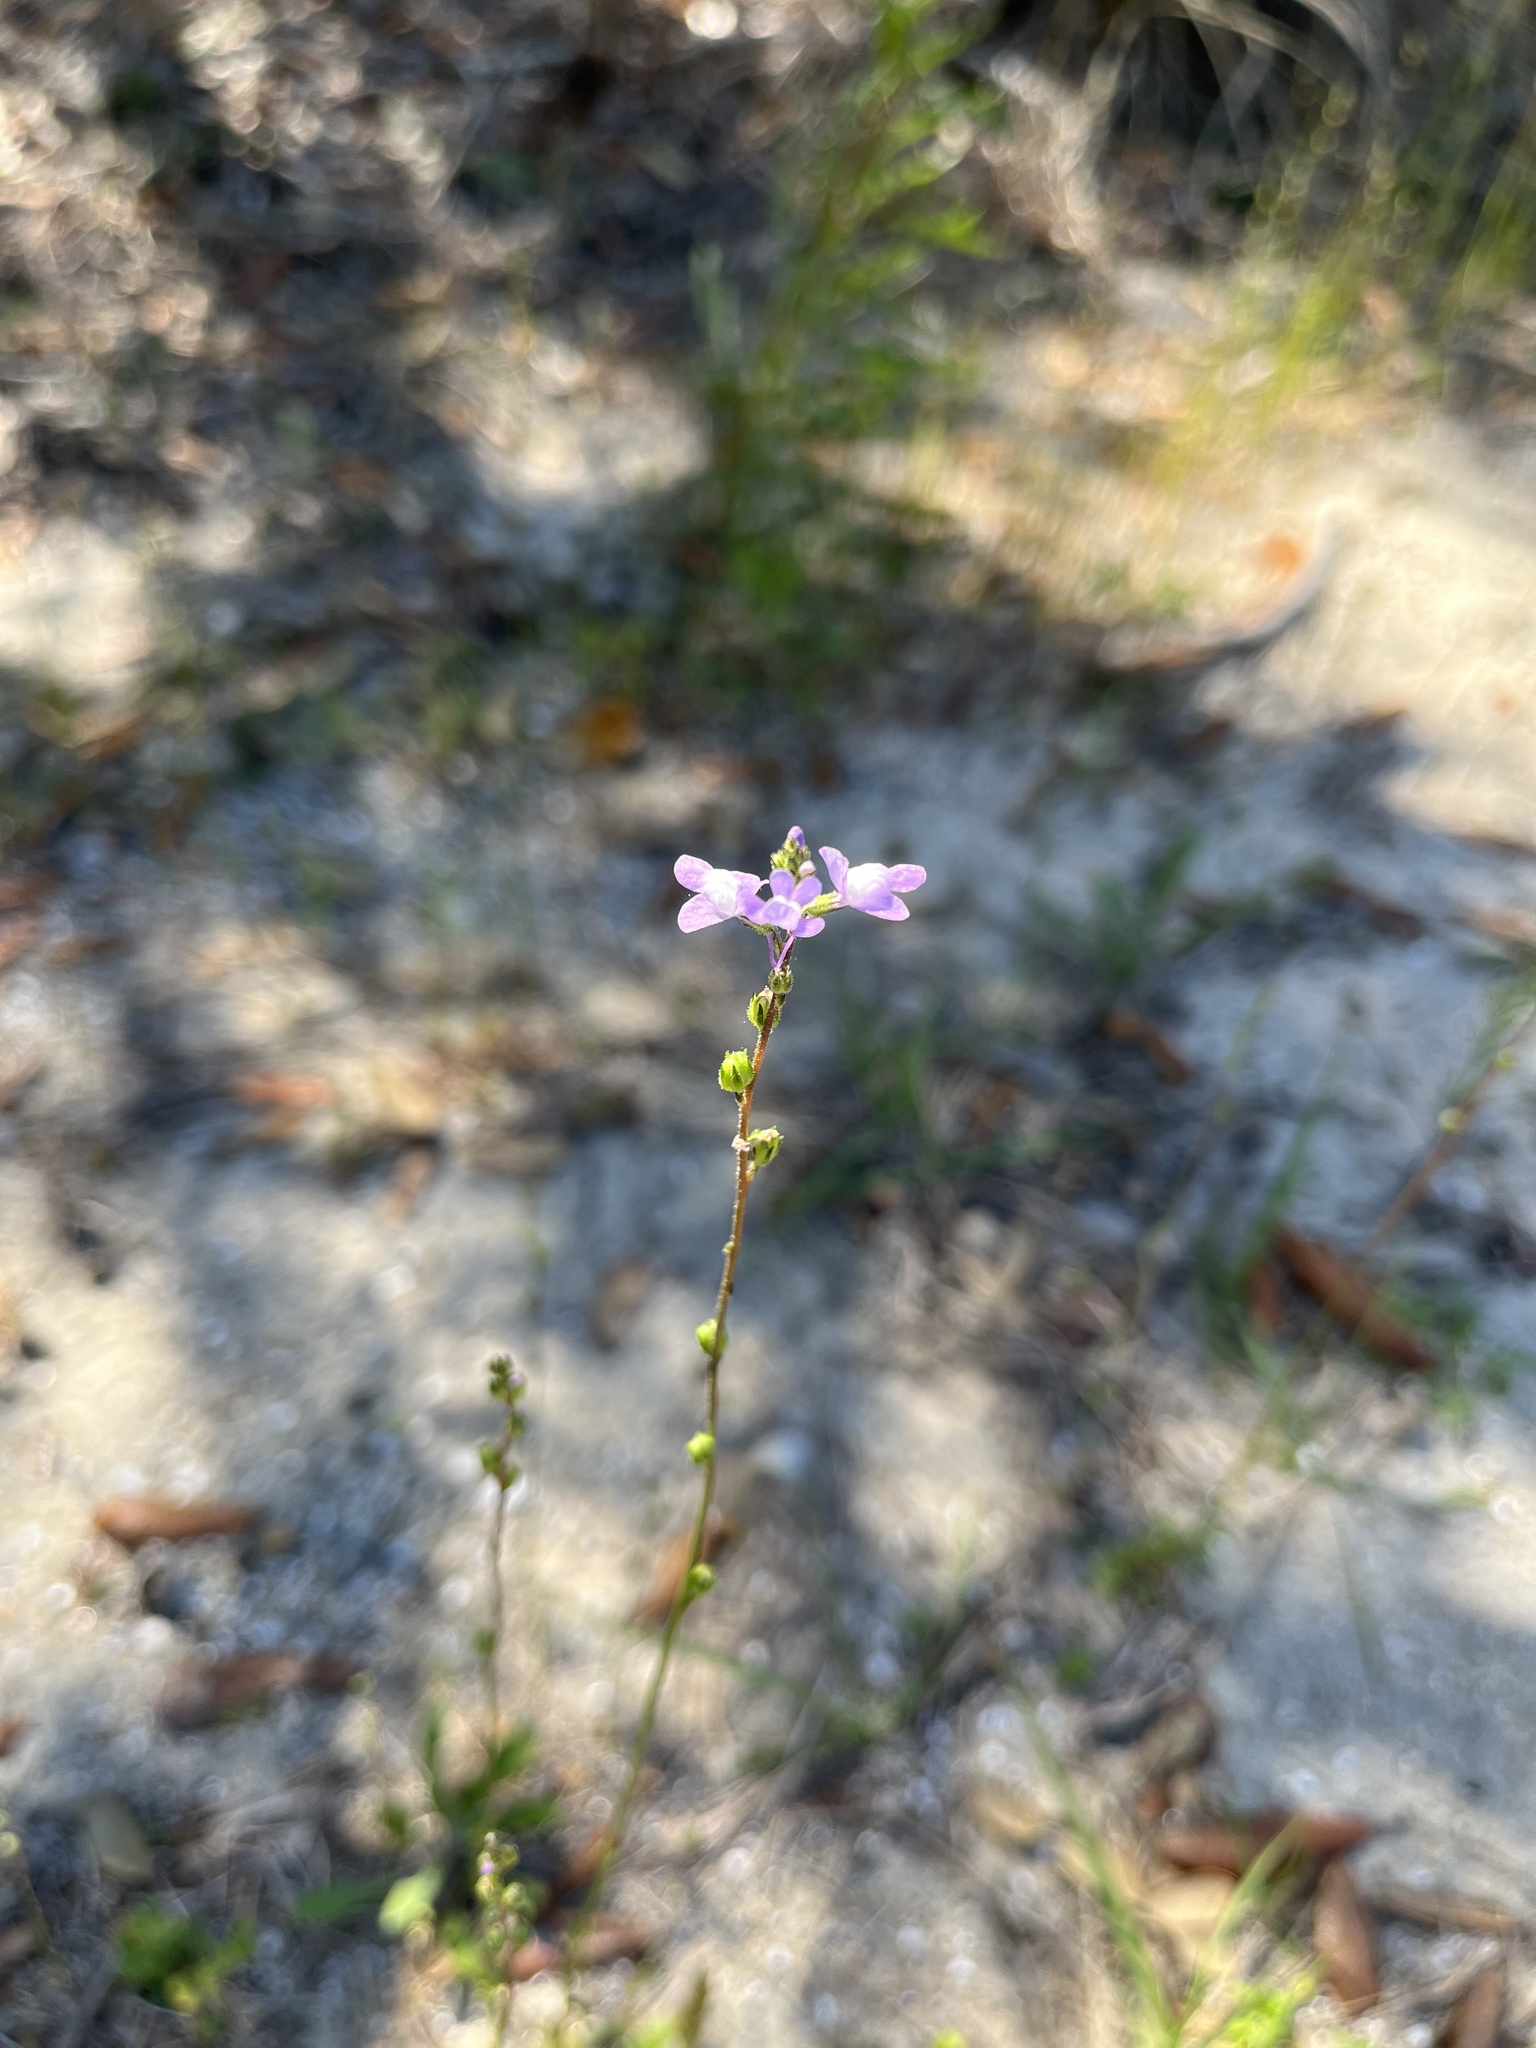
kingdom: Plantae
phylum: Tracheophyta
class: Magnoliopsida
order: Lamiales
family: Plantaginaceae
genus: Nuttallanthus
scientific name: Nuttallanthus canadensis
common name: Blue toadflax
